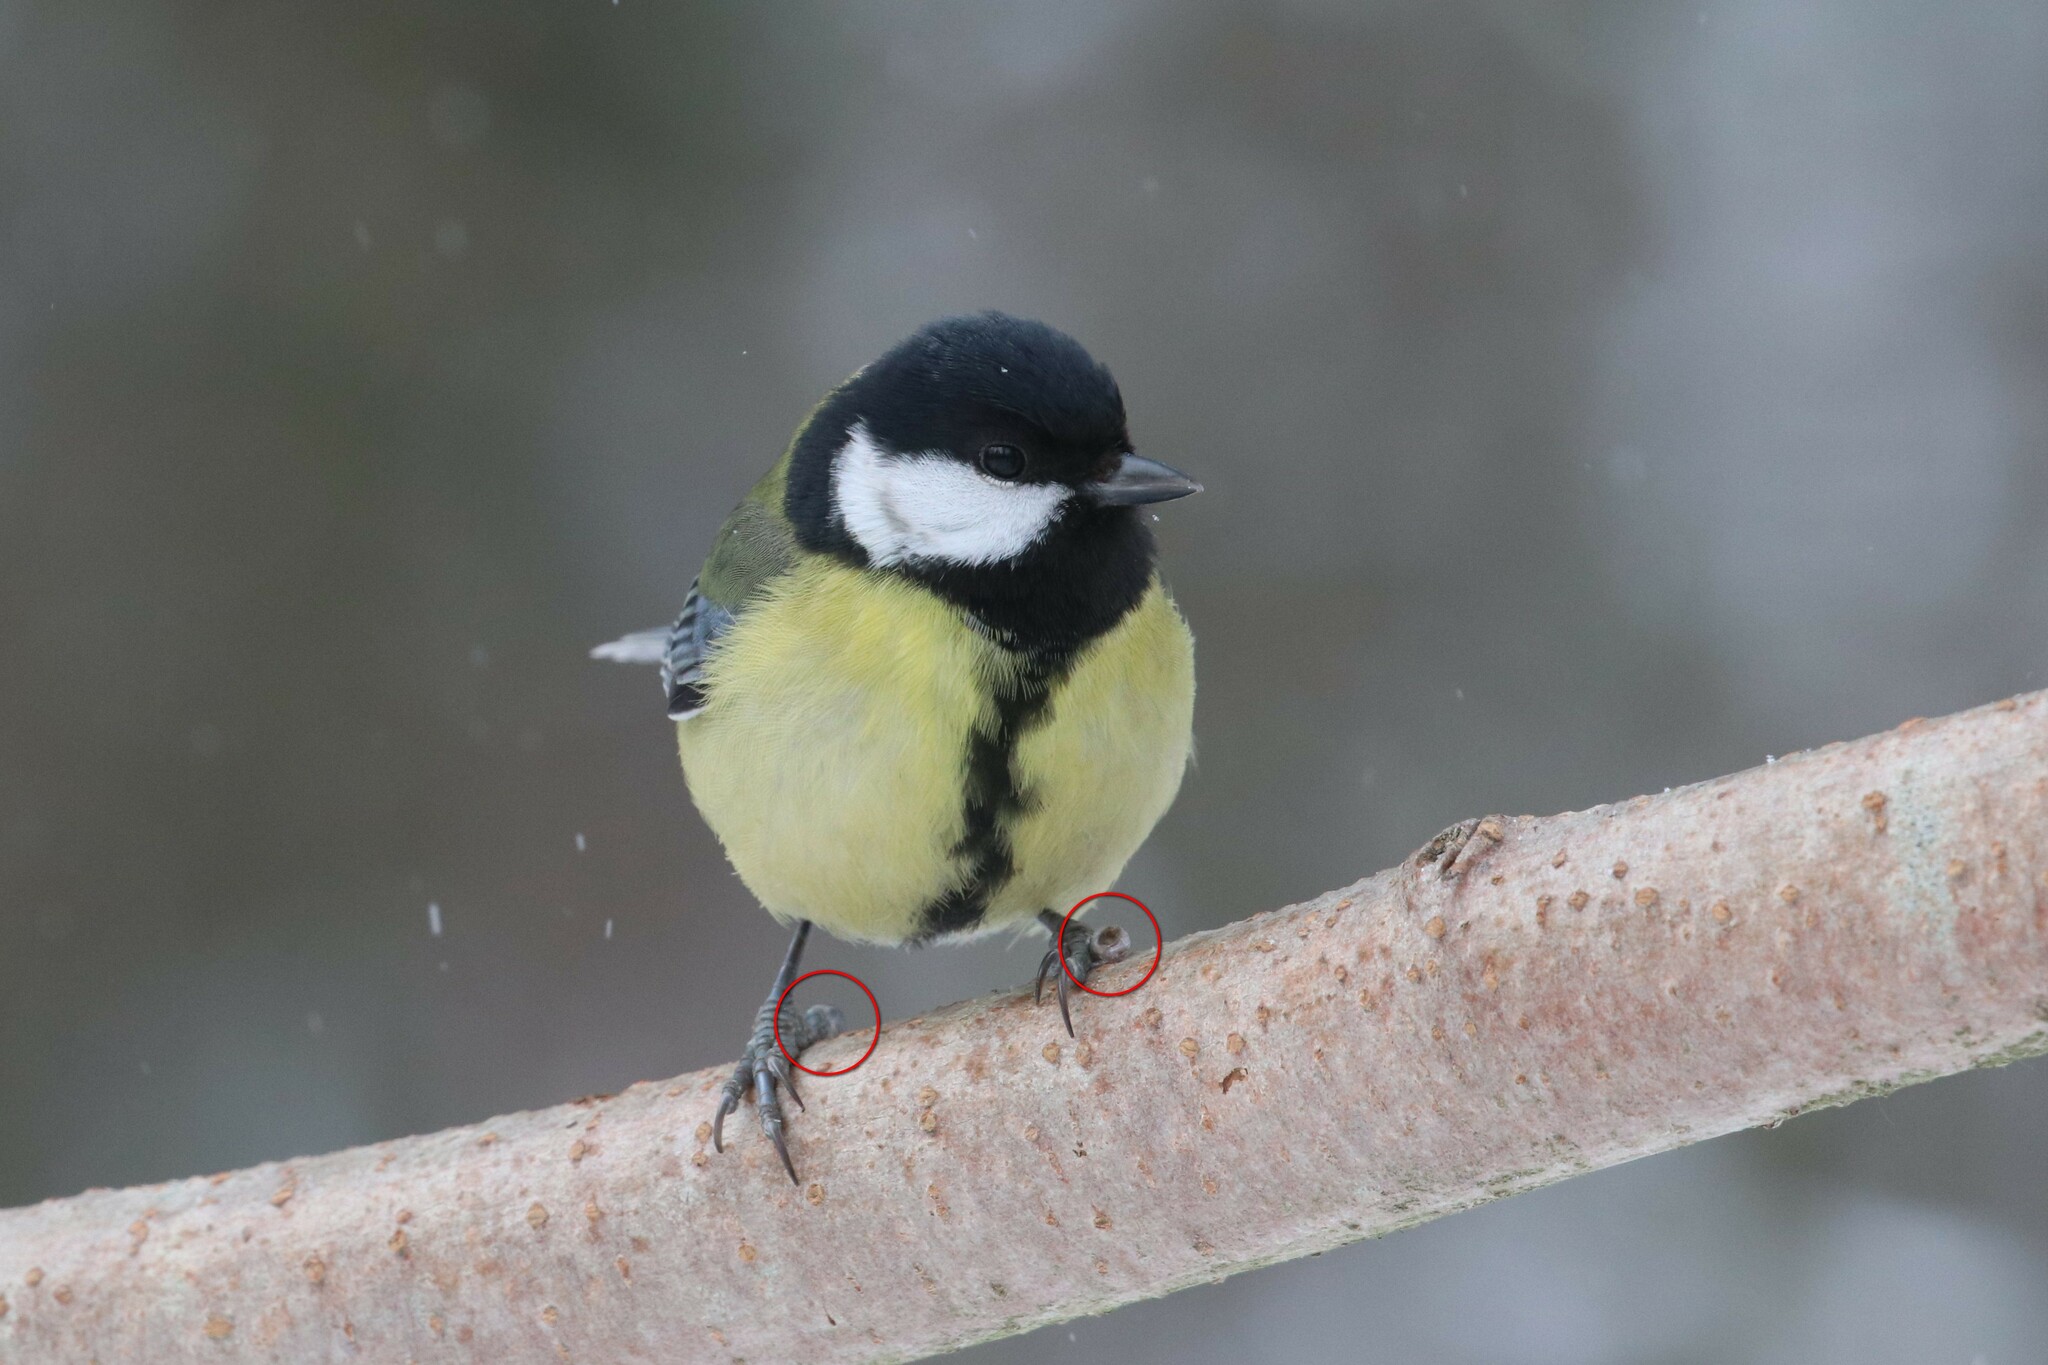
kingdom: Animalia
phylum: Chordata
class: Aves
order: Passeriformes
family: Paridae
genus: Parus
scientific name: Parus major
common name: Great tit
